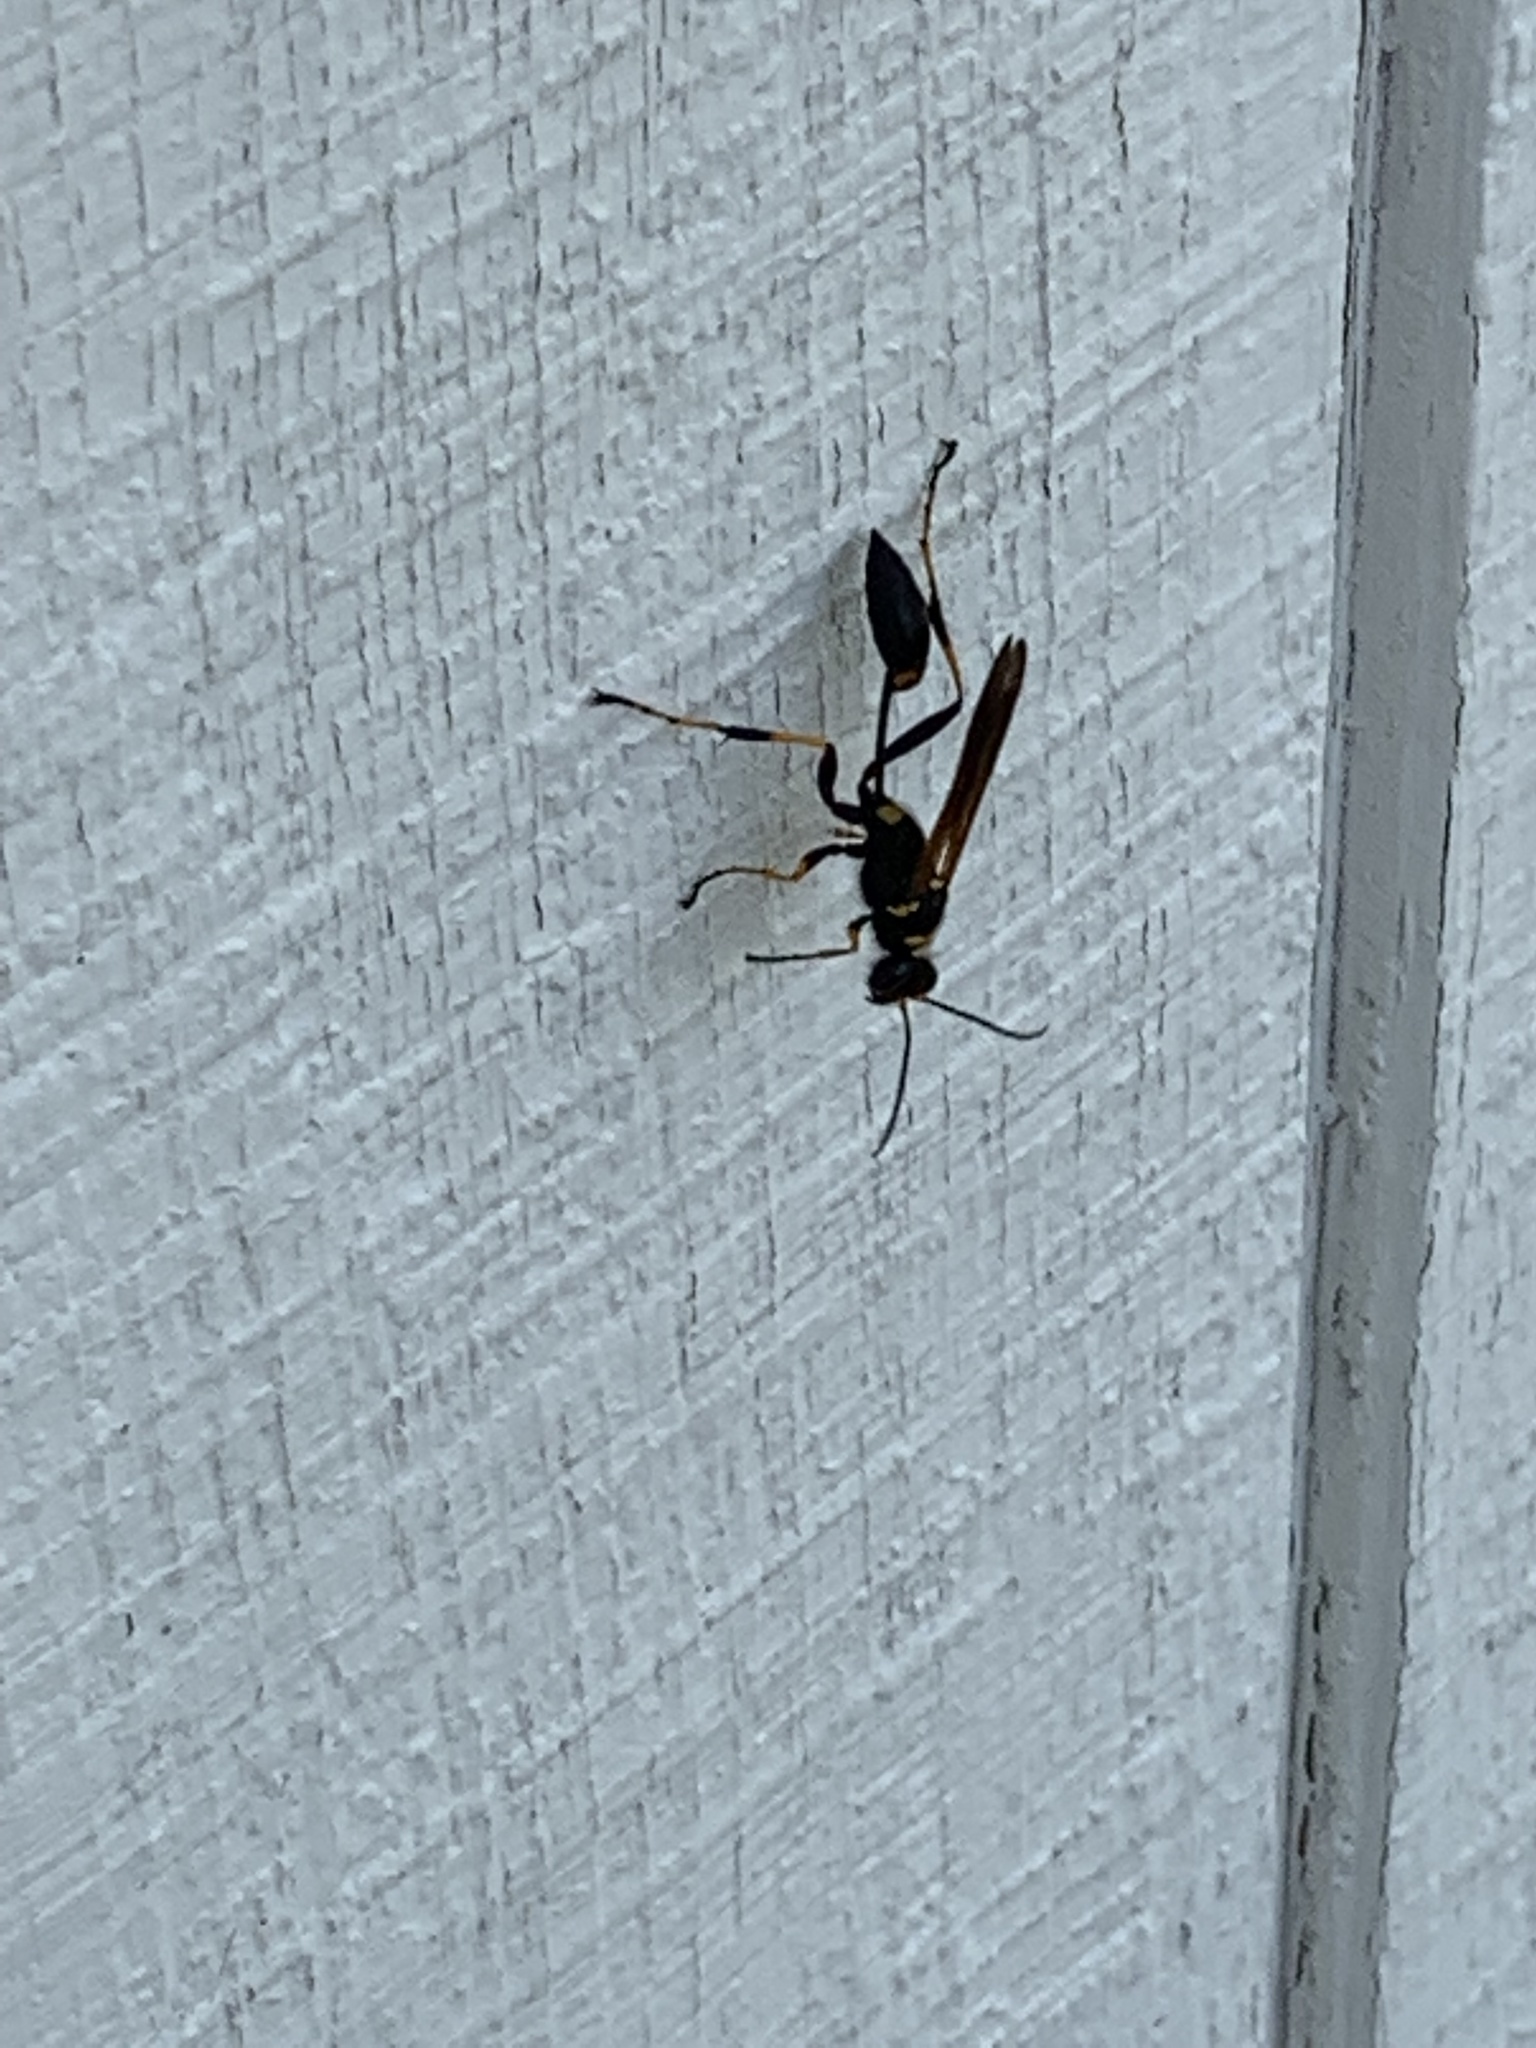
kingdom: Animalia
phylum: Arthropoda
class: Insecta
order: Hymenoptera
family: Sphecidae
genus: Sceliphron
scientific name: Sceliphron caementarium
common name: Mud dauber
